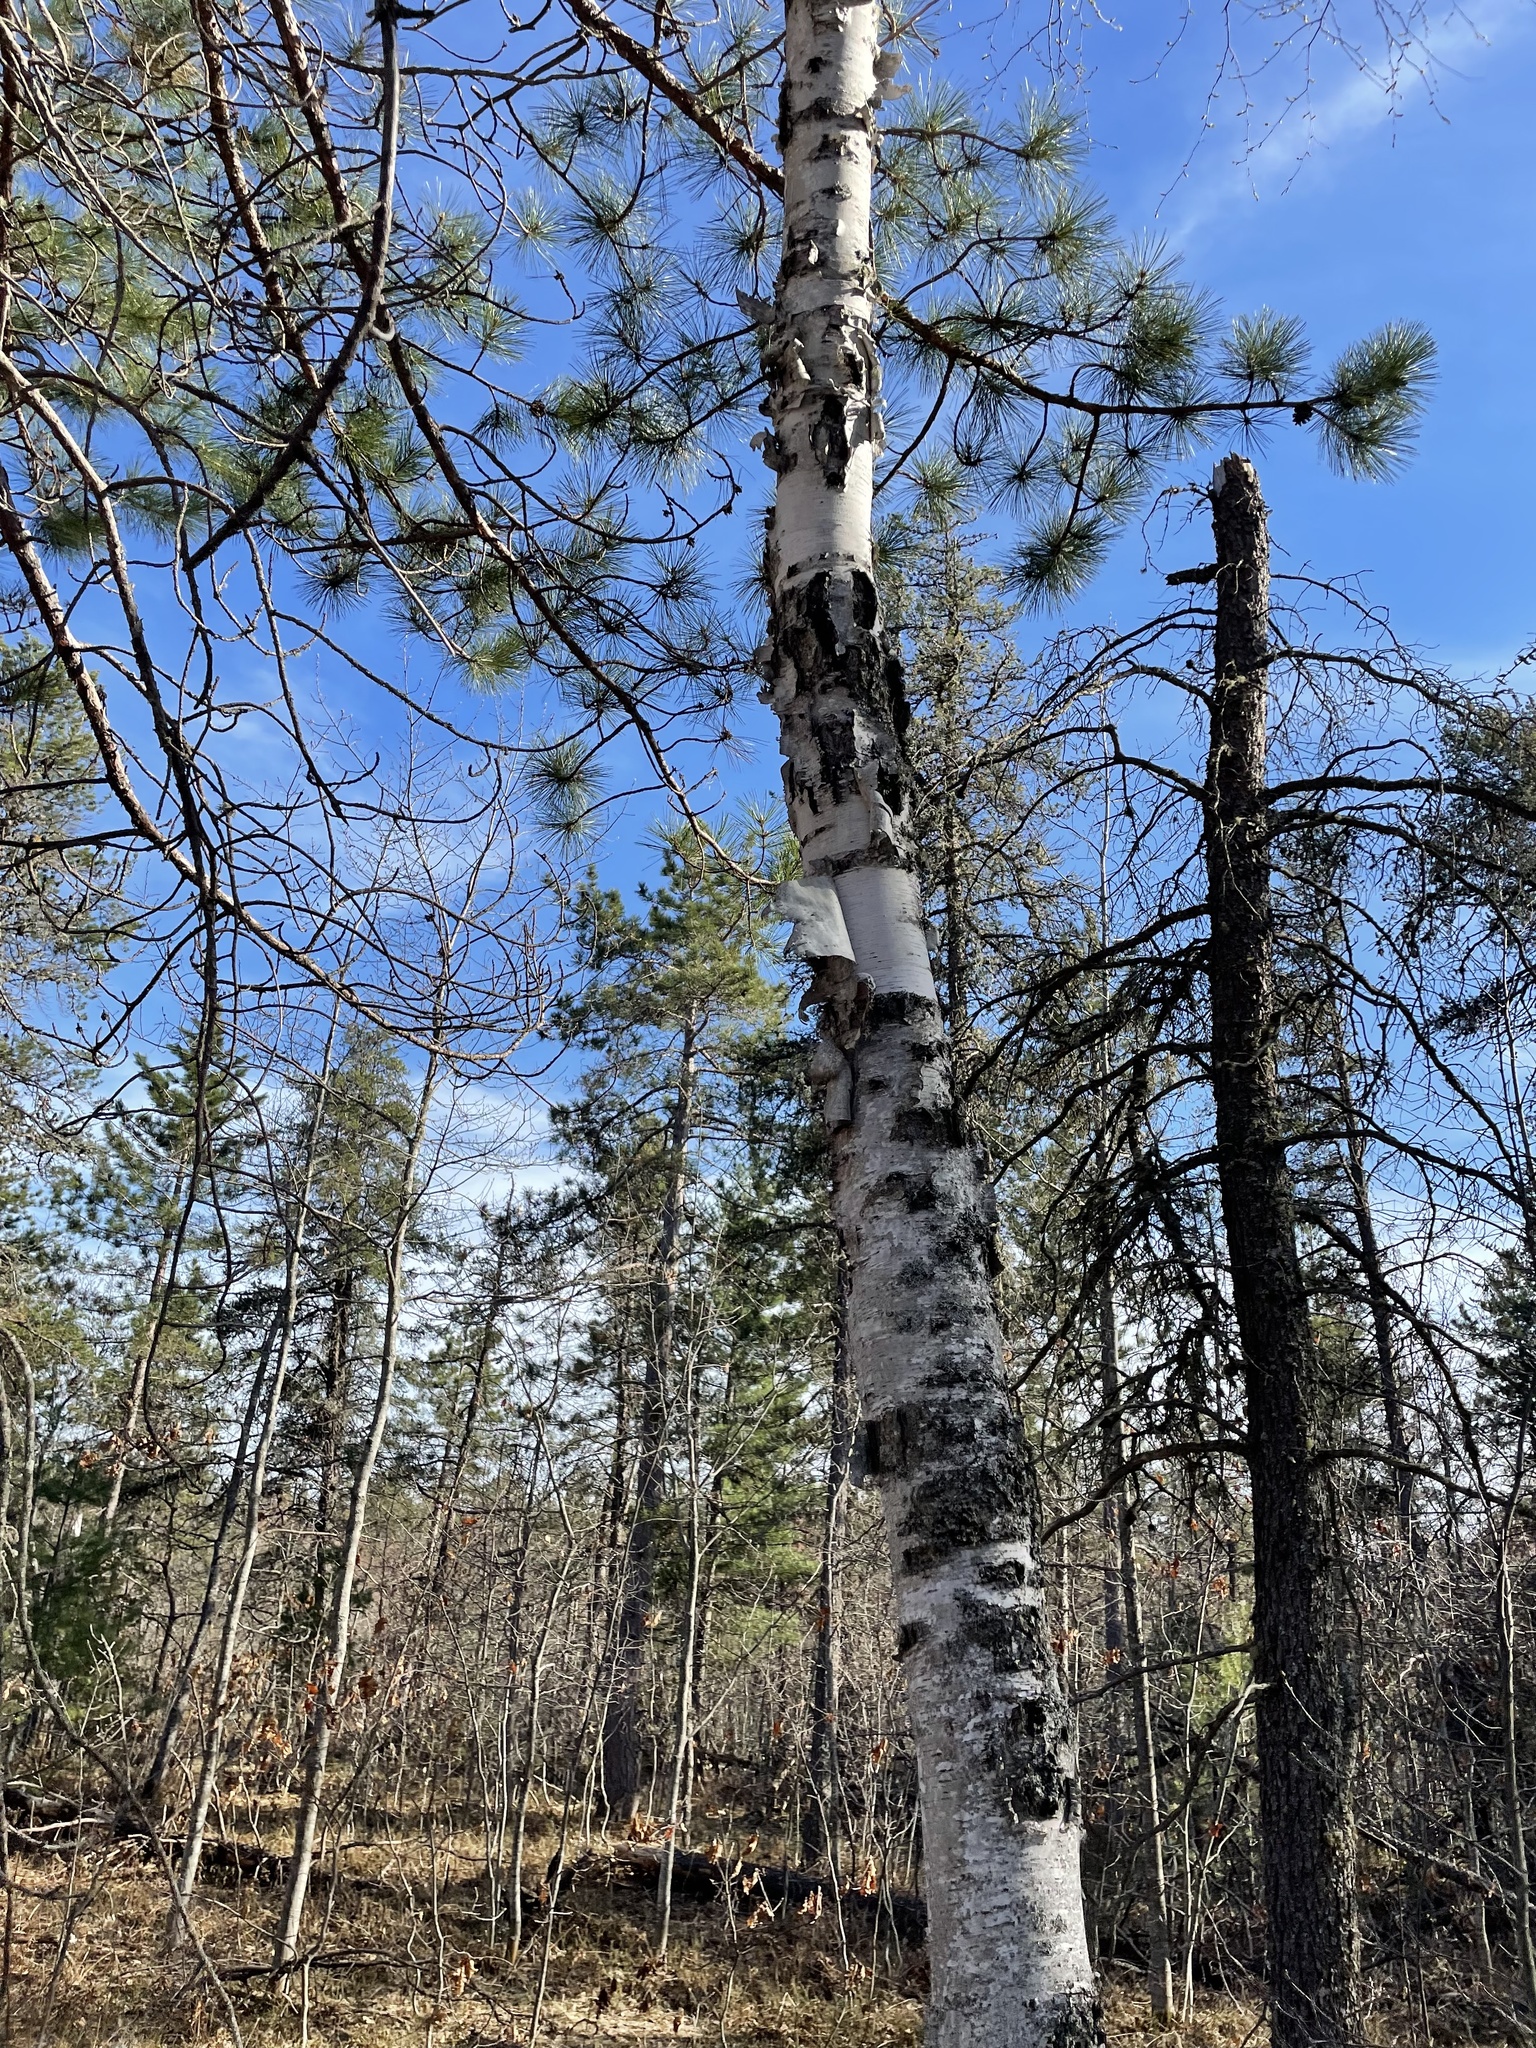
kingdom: Plantae
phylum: Tracheophyta
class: Magnoliopsida
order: Fagales
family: Betulaceae
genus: Betula
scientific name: Betula papyrifera
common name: Paper birch
